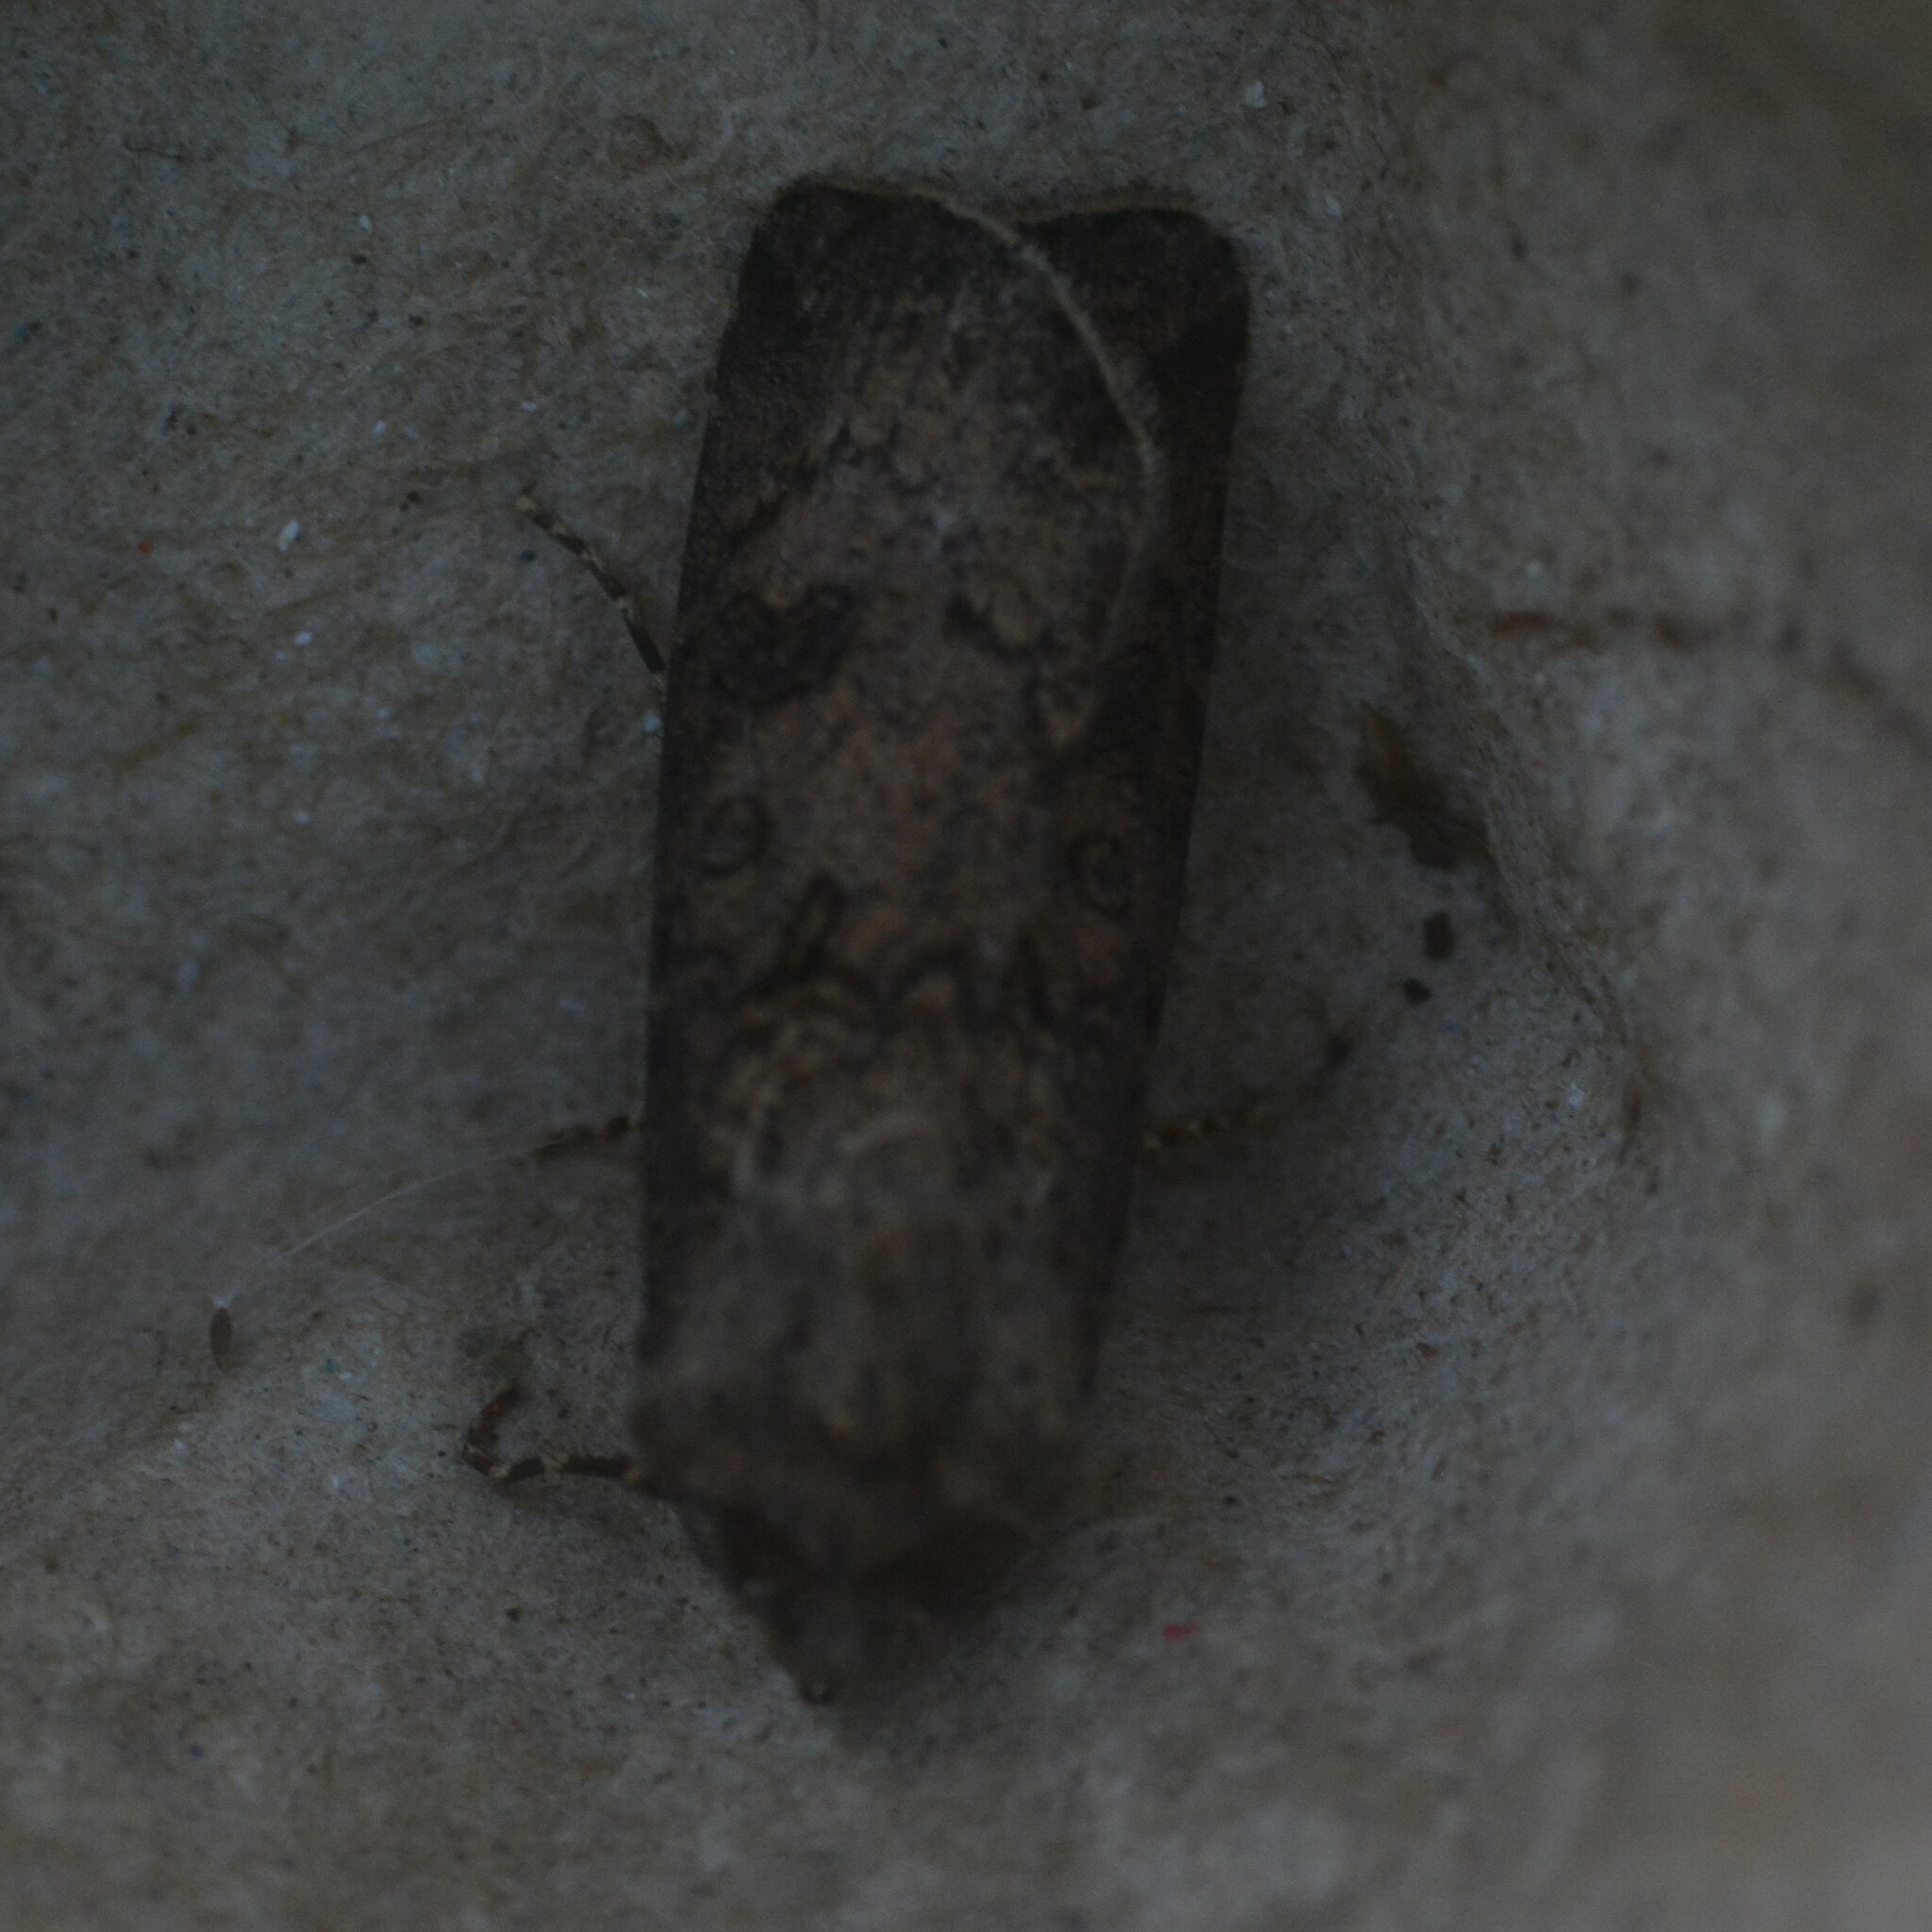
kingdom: Animalia
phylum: Arthropoda
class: Insecta
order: Lepidoptera
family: Noctuidae
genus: Agrotis
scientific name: Agrotis segetum
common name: Turnip moth
